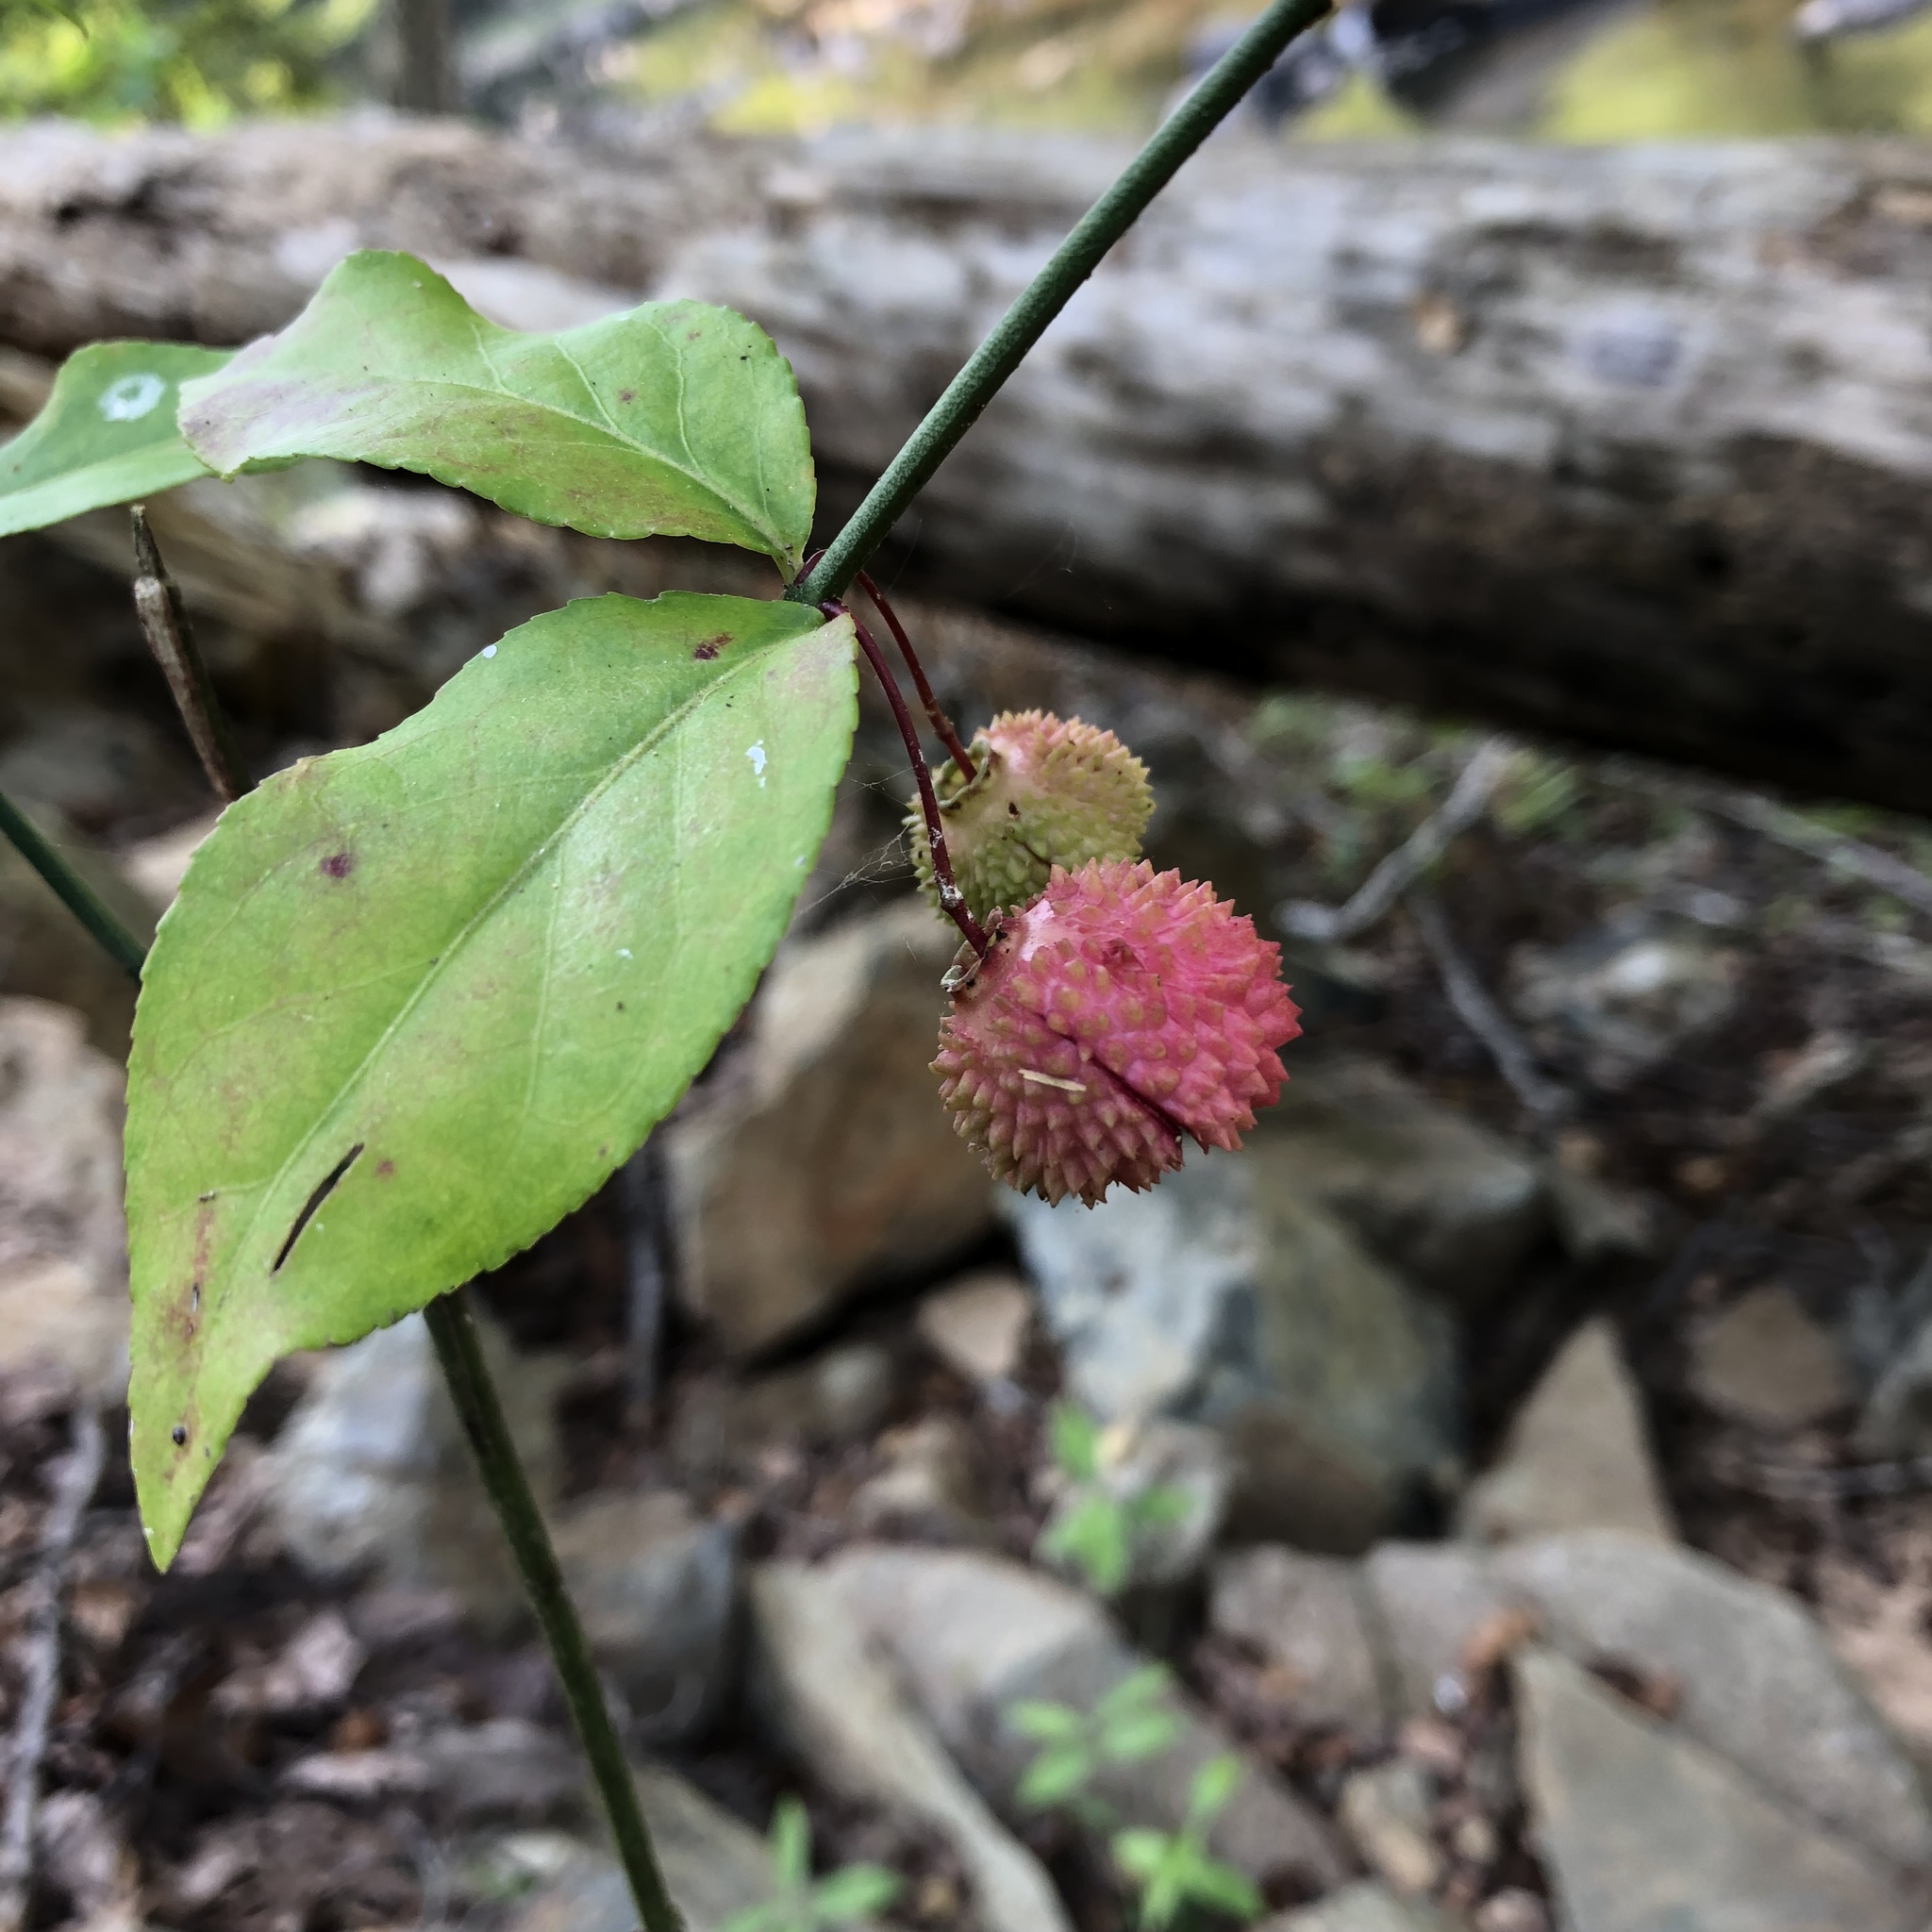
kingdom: Plantae
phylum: Tracheophyta
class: Magnoliopsida
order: Celastrales
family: Celastraceae
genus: Euonymus
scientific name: Euonymus americanus
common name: Bursting-heart
